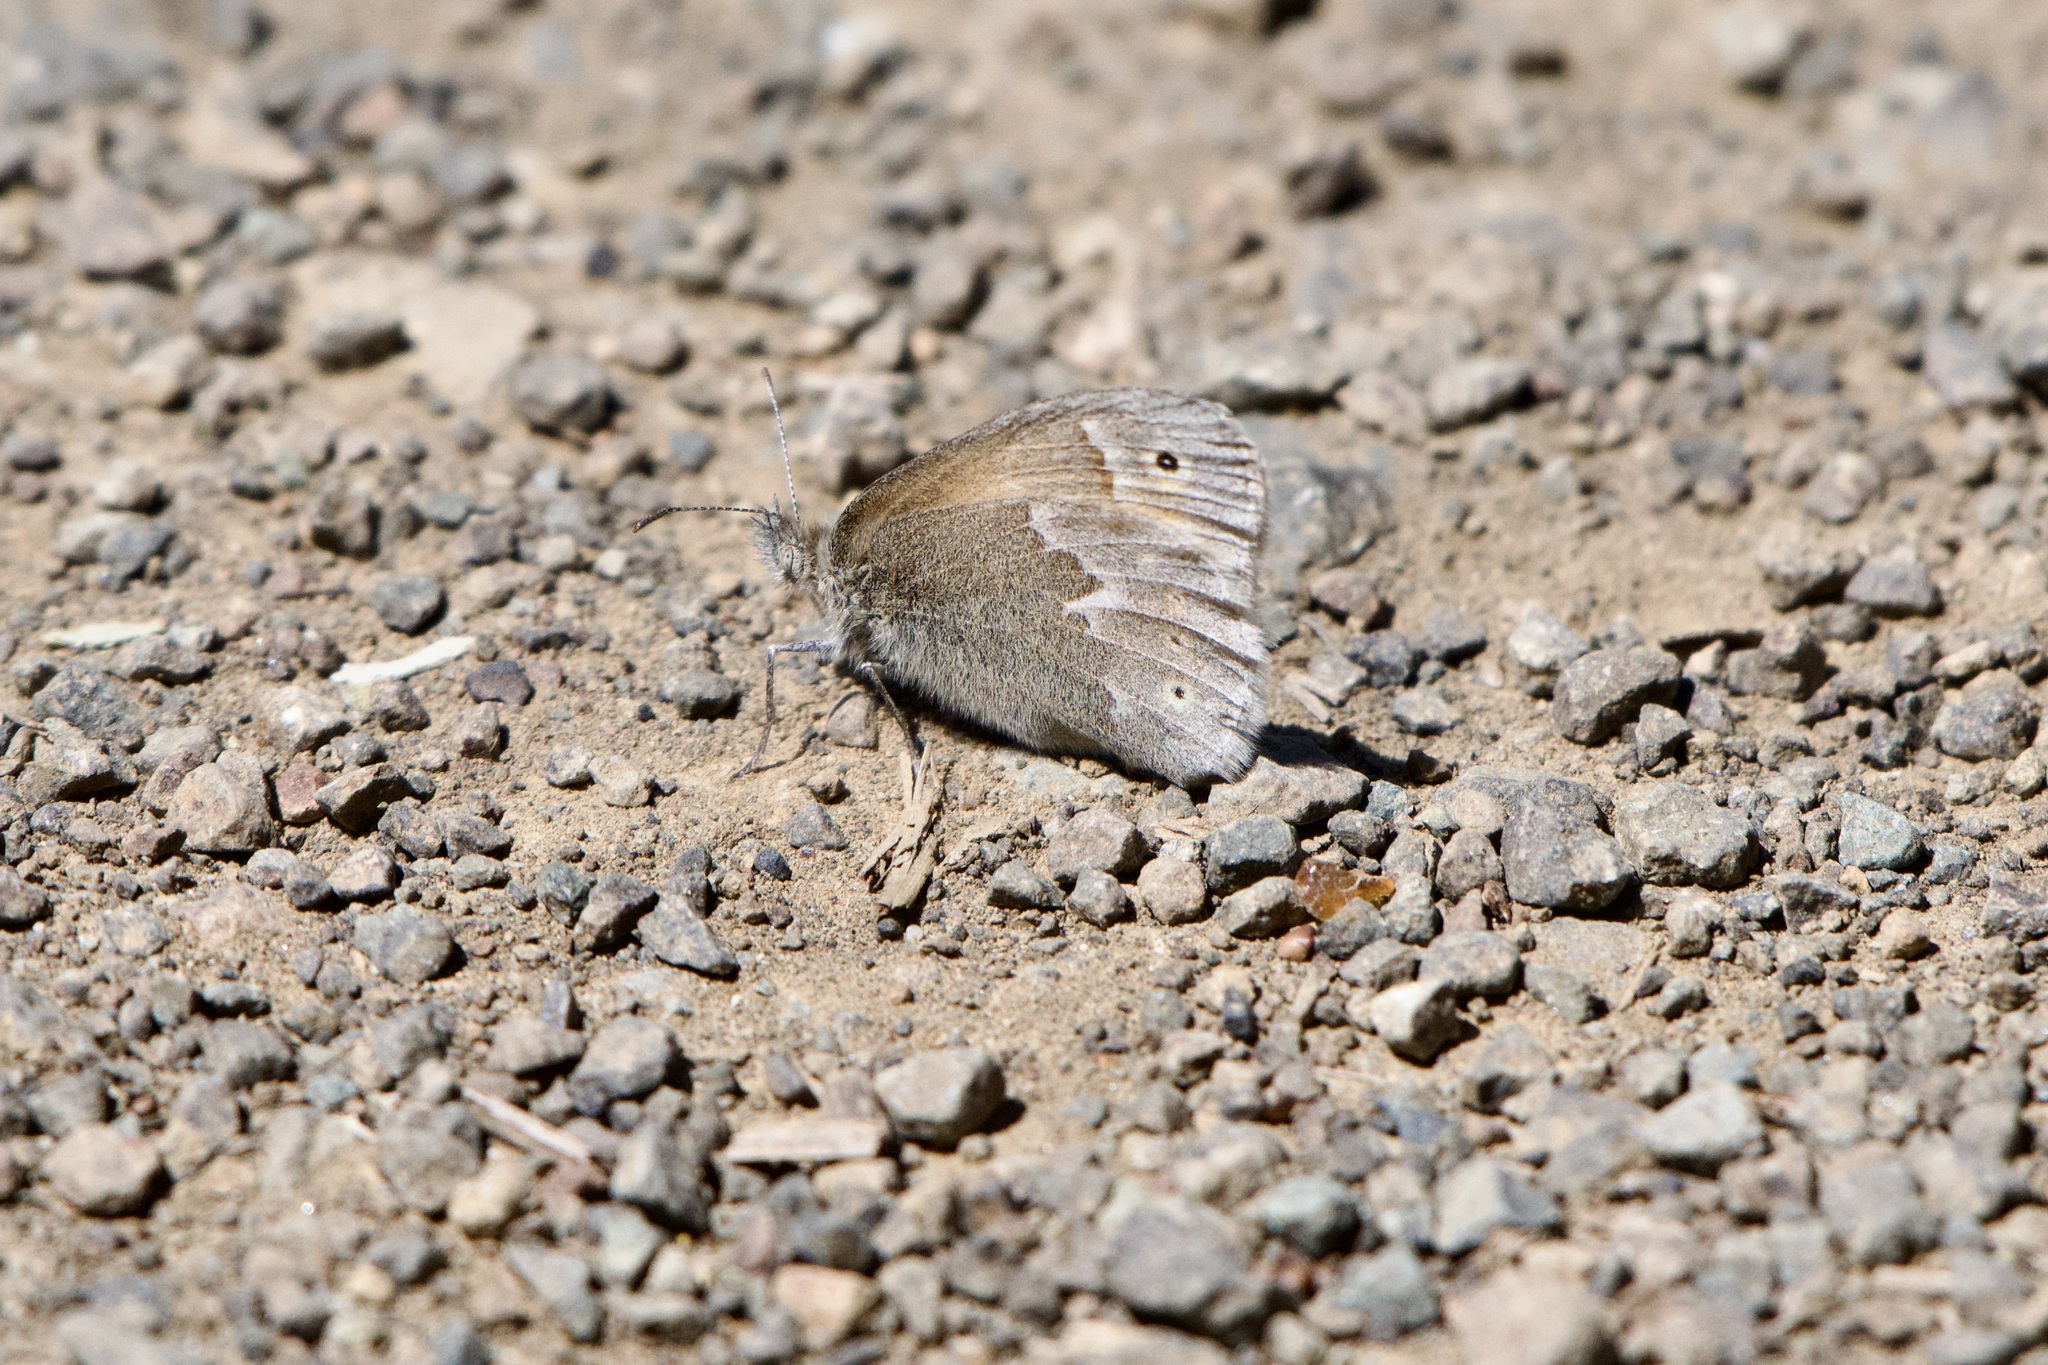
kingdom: Animalia
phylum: Arthropoda
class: Insecta
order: Lepidoptera
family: Nymphalidae
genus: Coenonympha
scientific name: Coenonympha california
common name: Common ringlet
